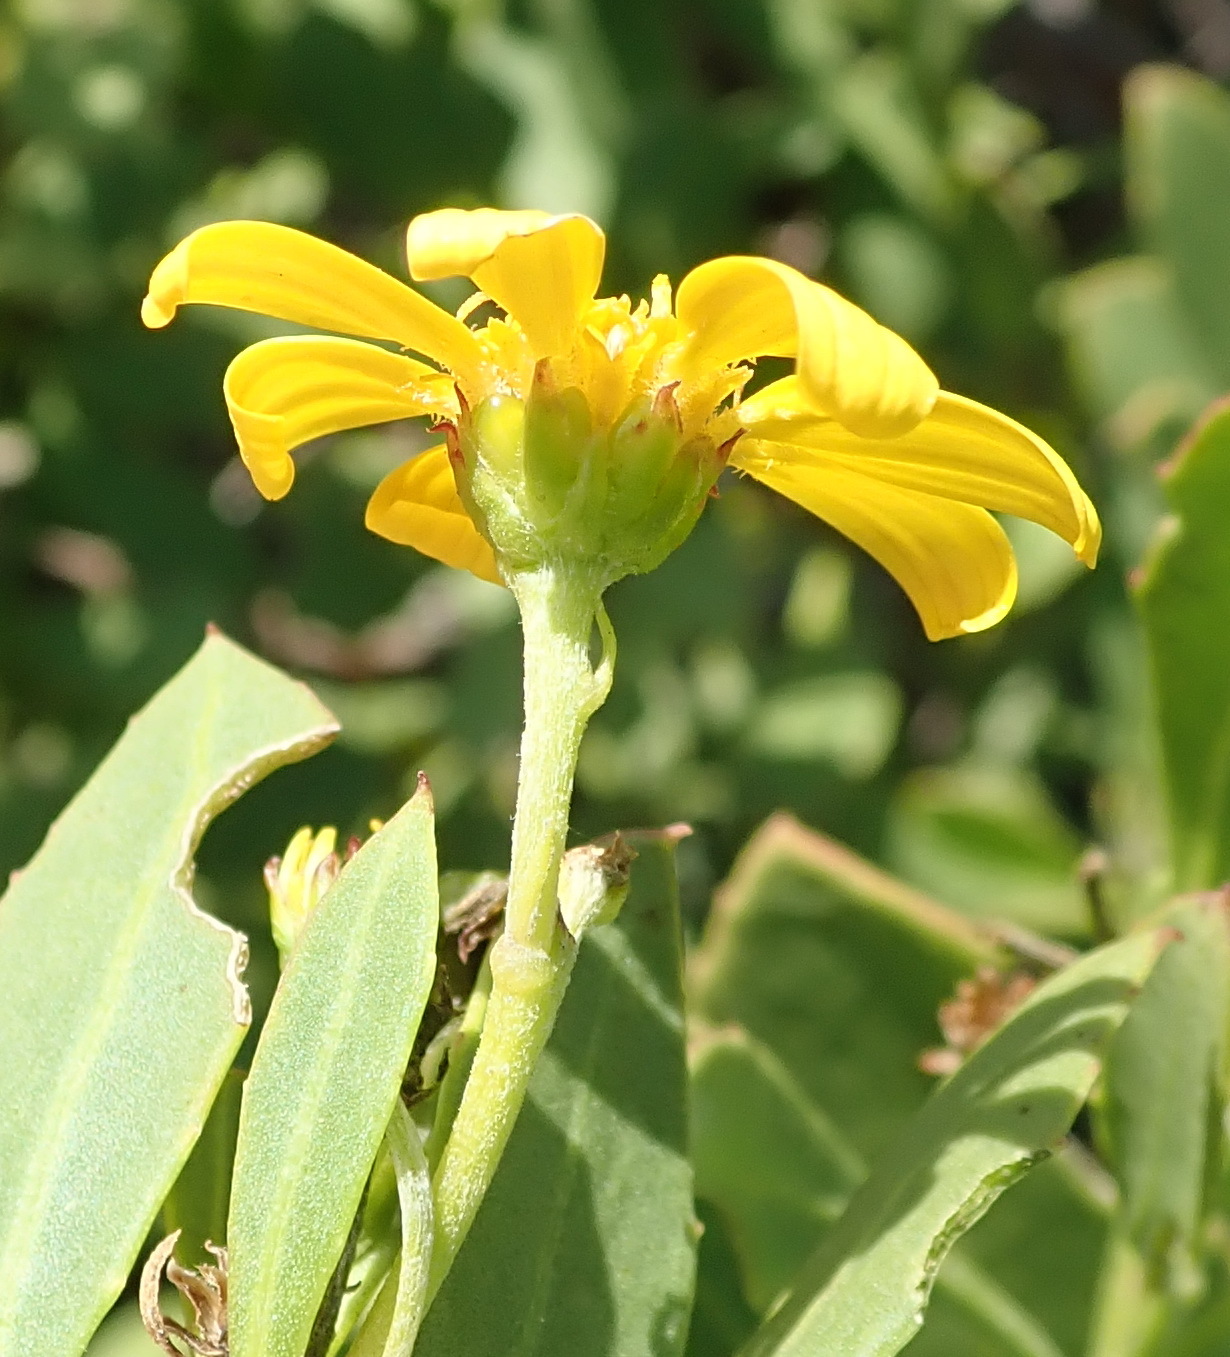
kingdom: Plantae
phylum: Tracheophyta
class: Magnoliopsida
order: Asterales
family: Asteraceae
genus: Osteospermum
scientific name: Osteospermum moniliferum
